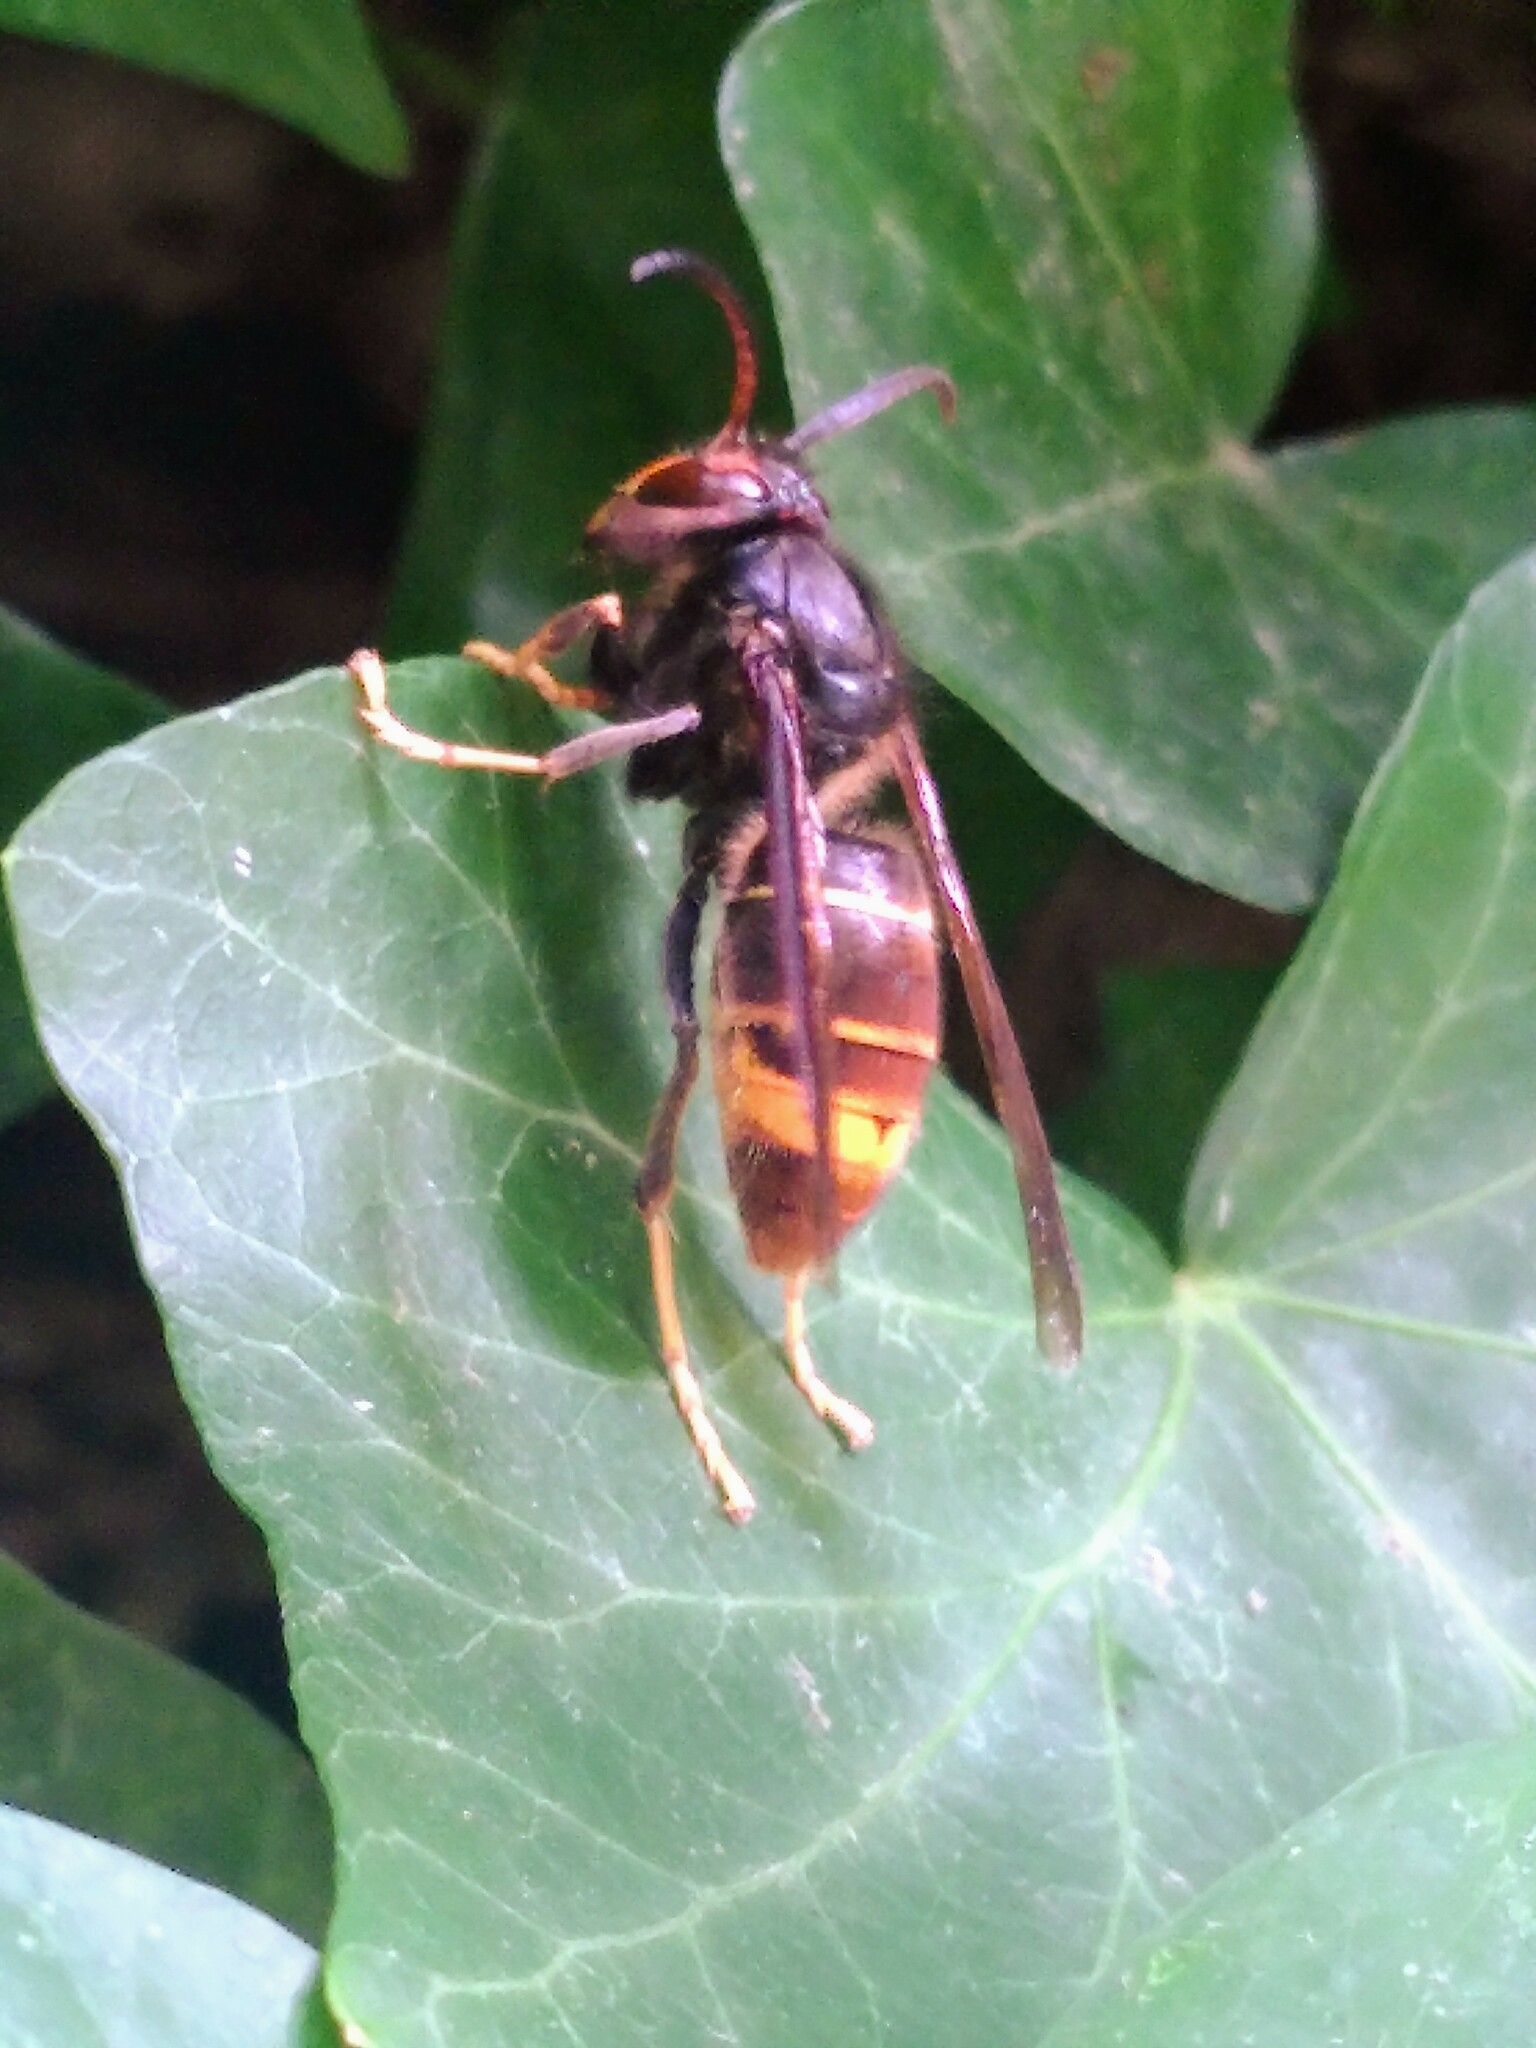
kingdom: Animalia
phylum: Arthropoda
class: Insecta
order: Hymenoptera
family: Vespidae
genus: Vespa
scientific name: Vespa velutina
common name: Asian hornet
